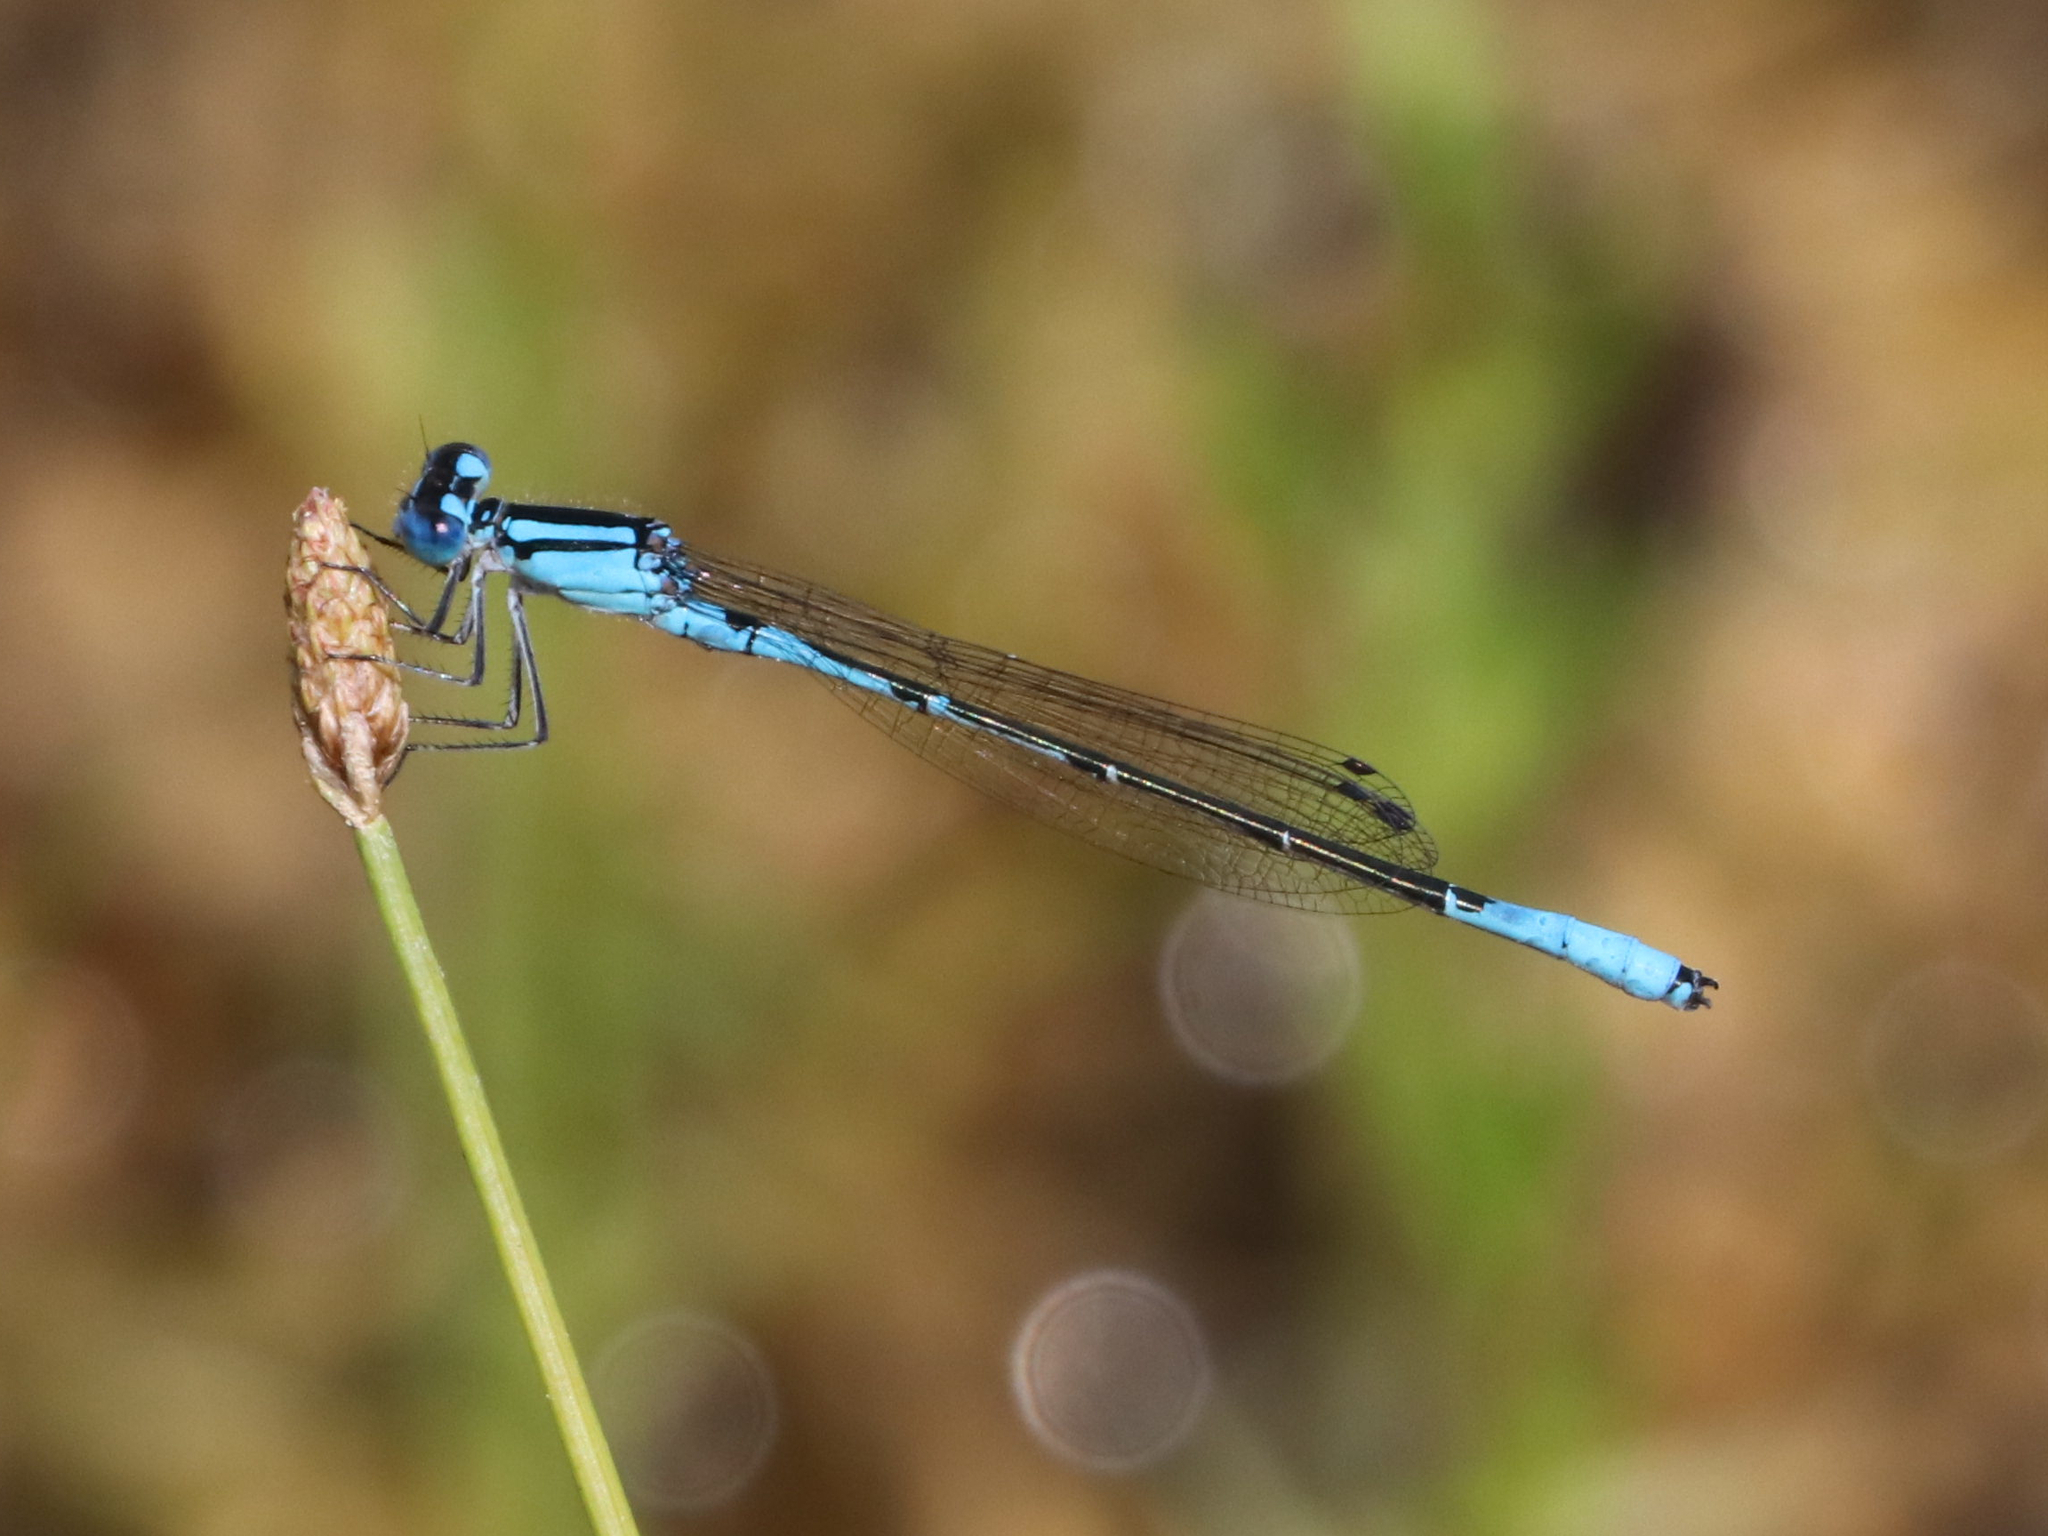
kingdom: Animalia
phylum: Arthropoda
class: Insecta
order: Odonata
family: Coenagrionidae
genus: Enallagma
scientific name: Enallagma aspersum
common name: Azure bluet
